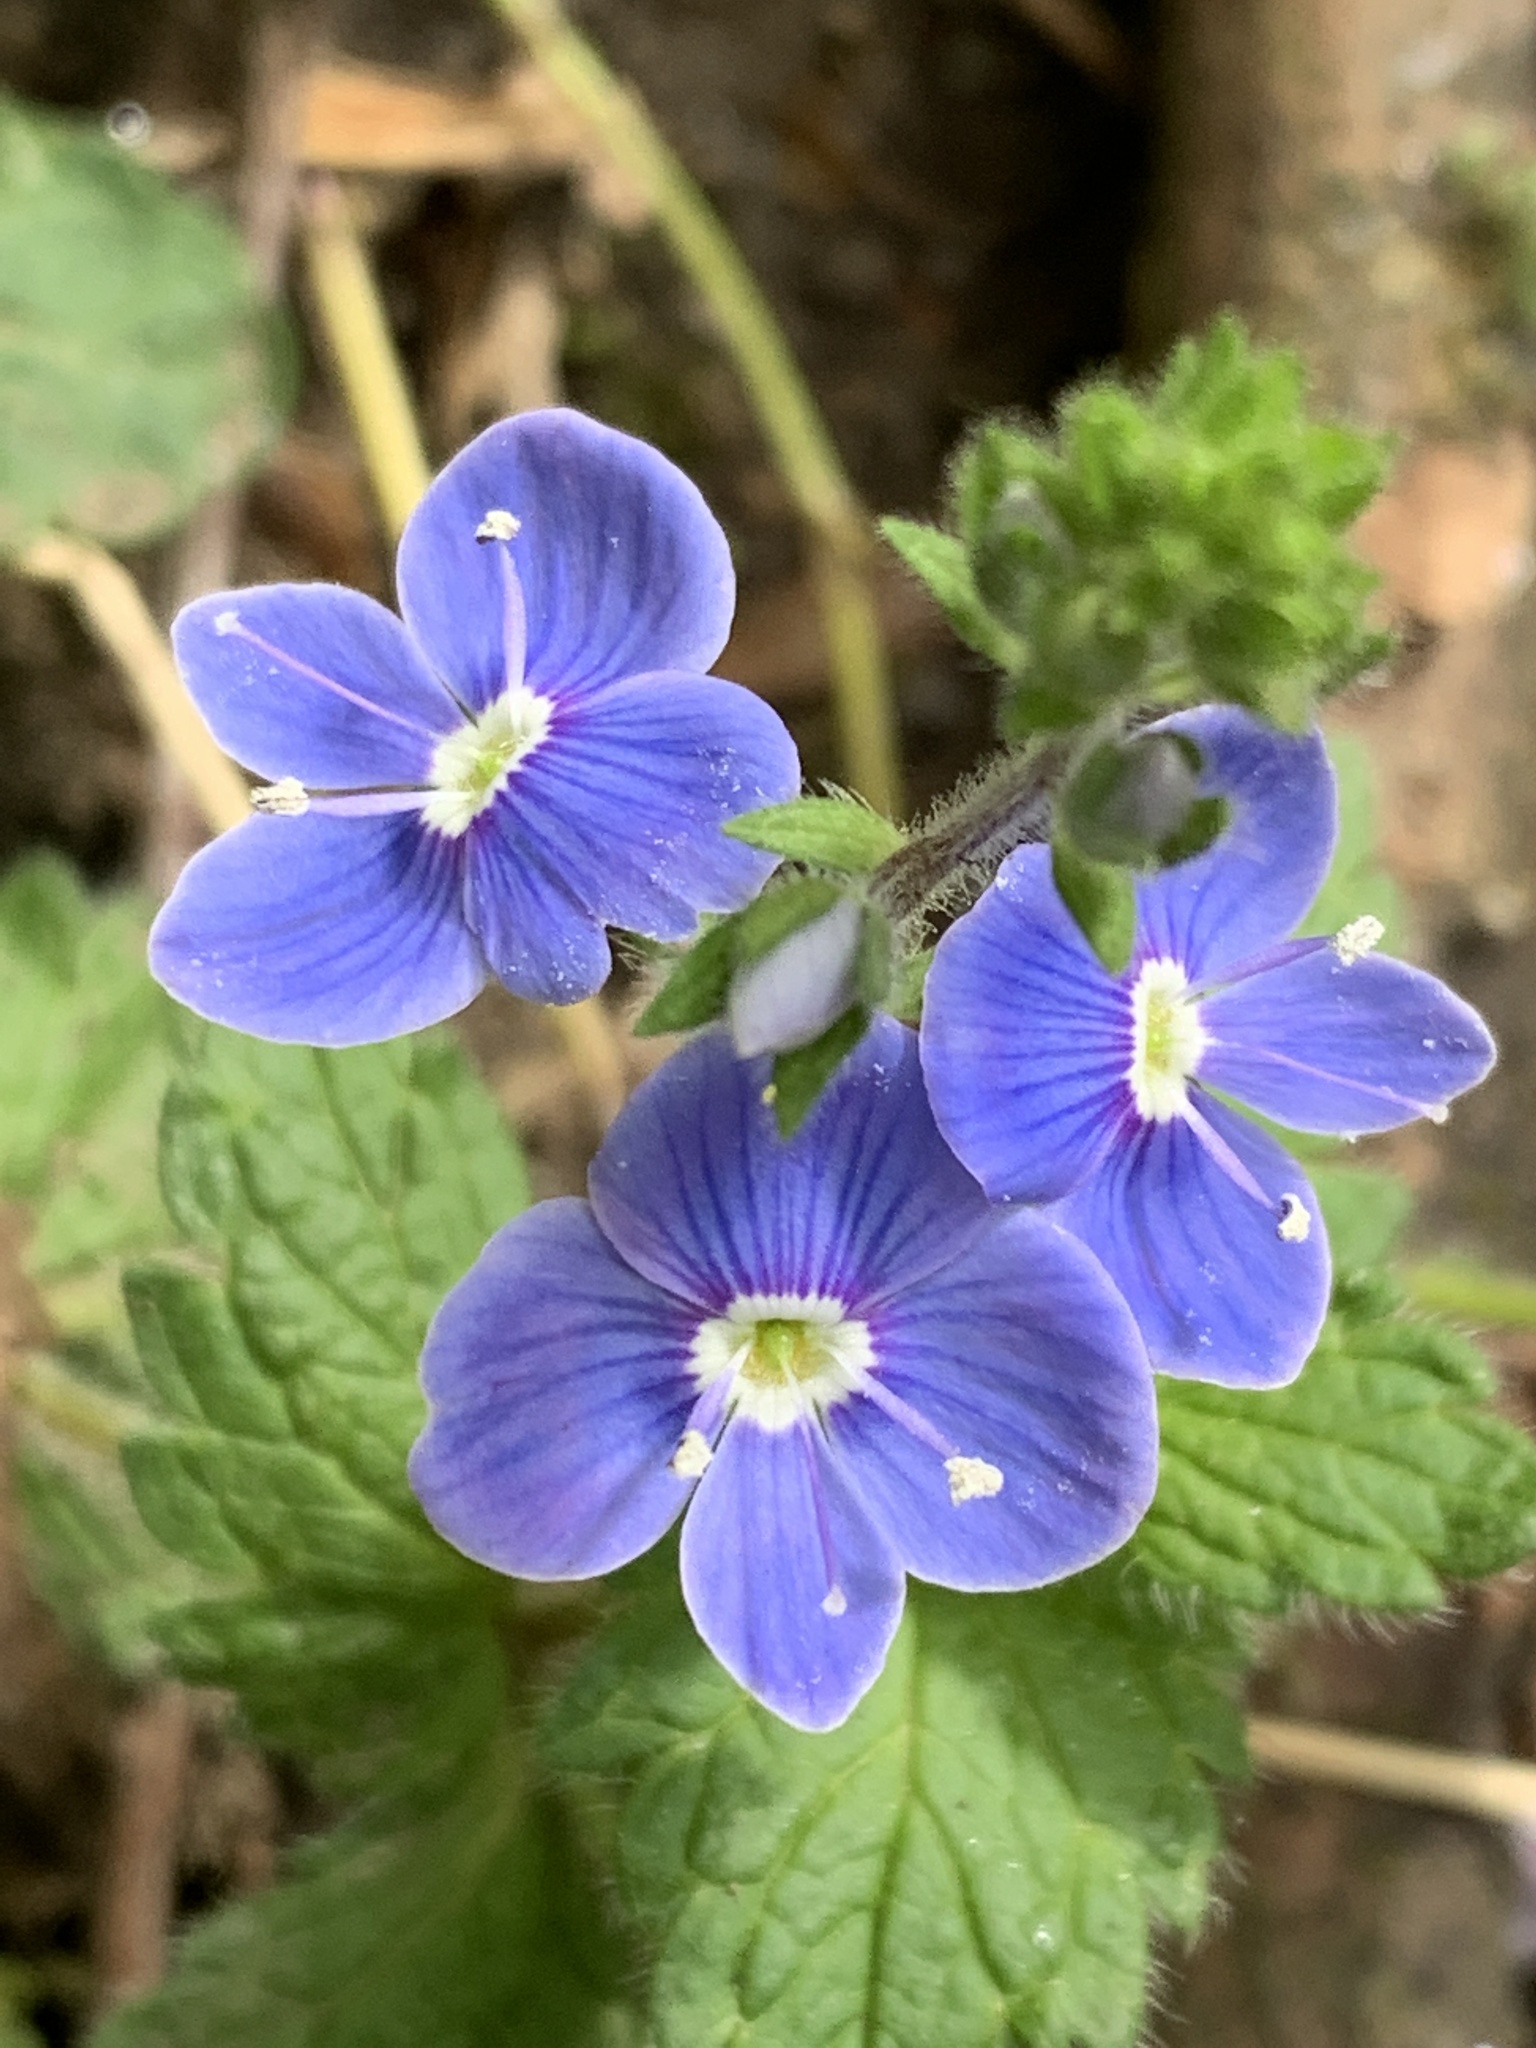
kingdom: Plantae
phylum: Tracheophyta
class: Magnoliopsida
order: Lamiales
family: Plantaginaceae
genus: Veronica
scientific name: Veronica chamaedrys
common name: Germander speedwell
